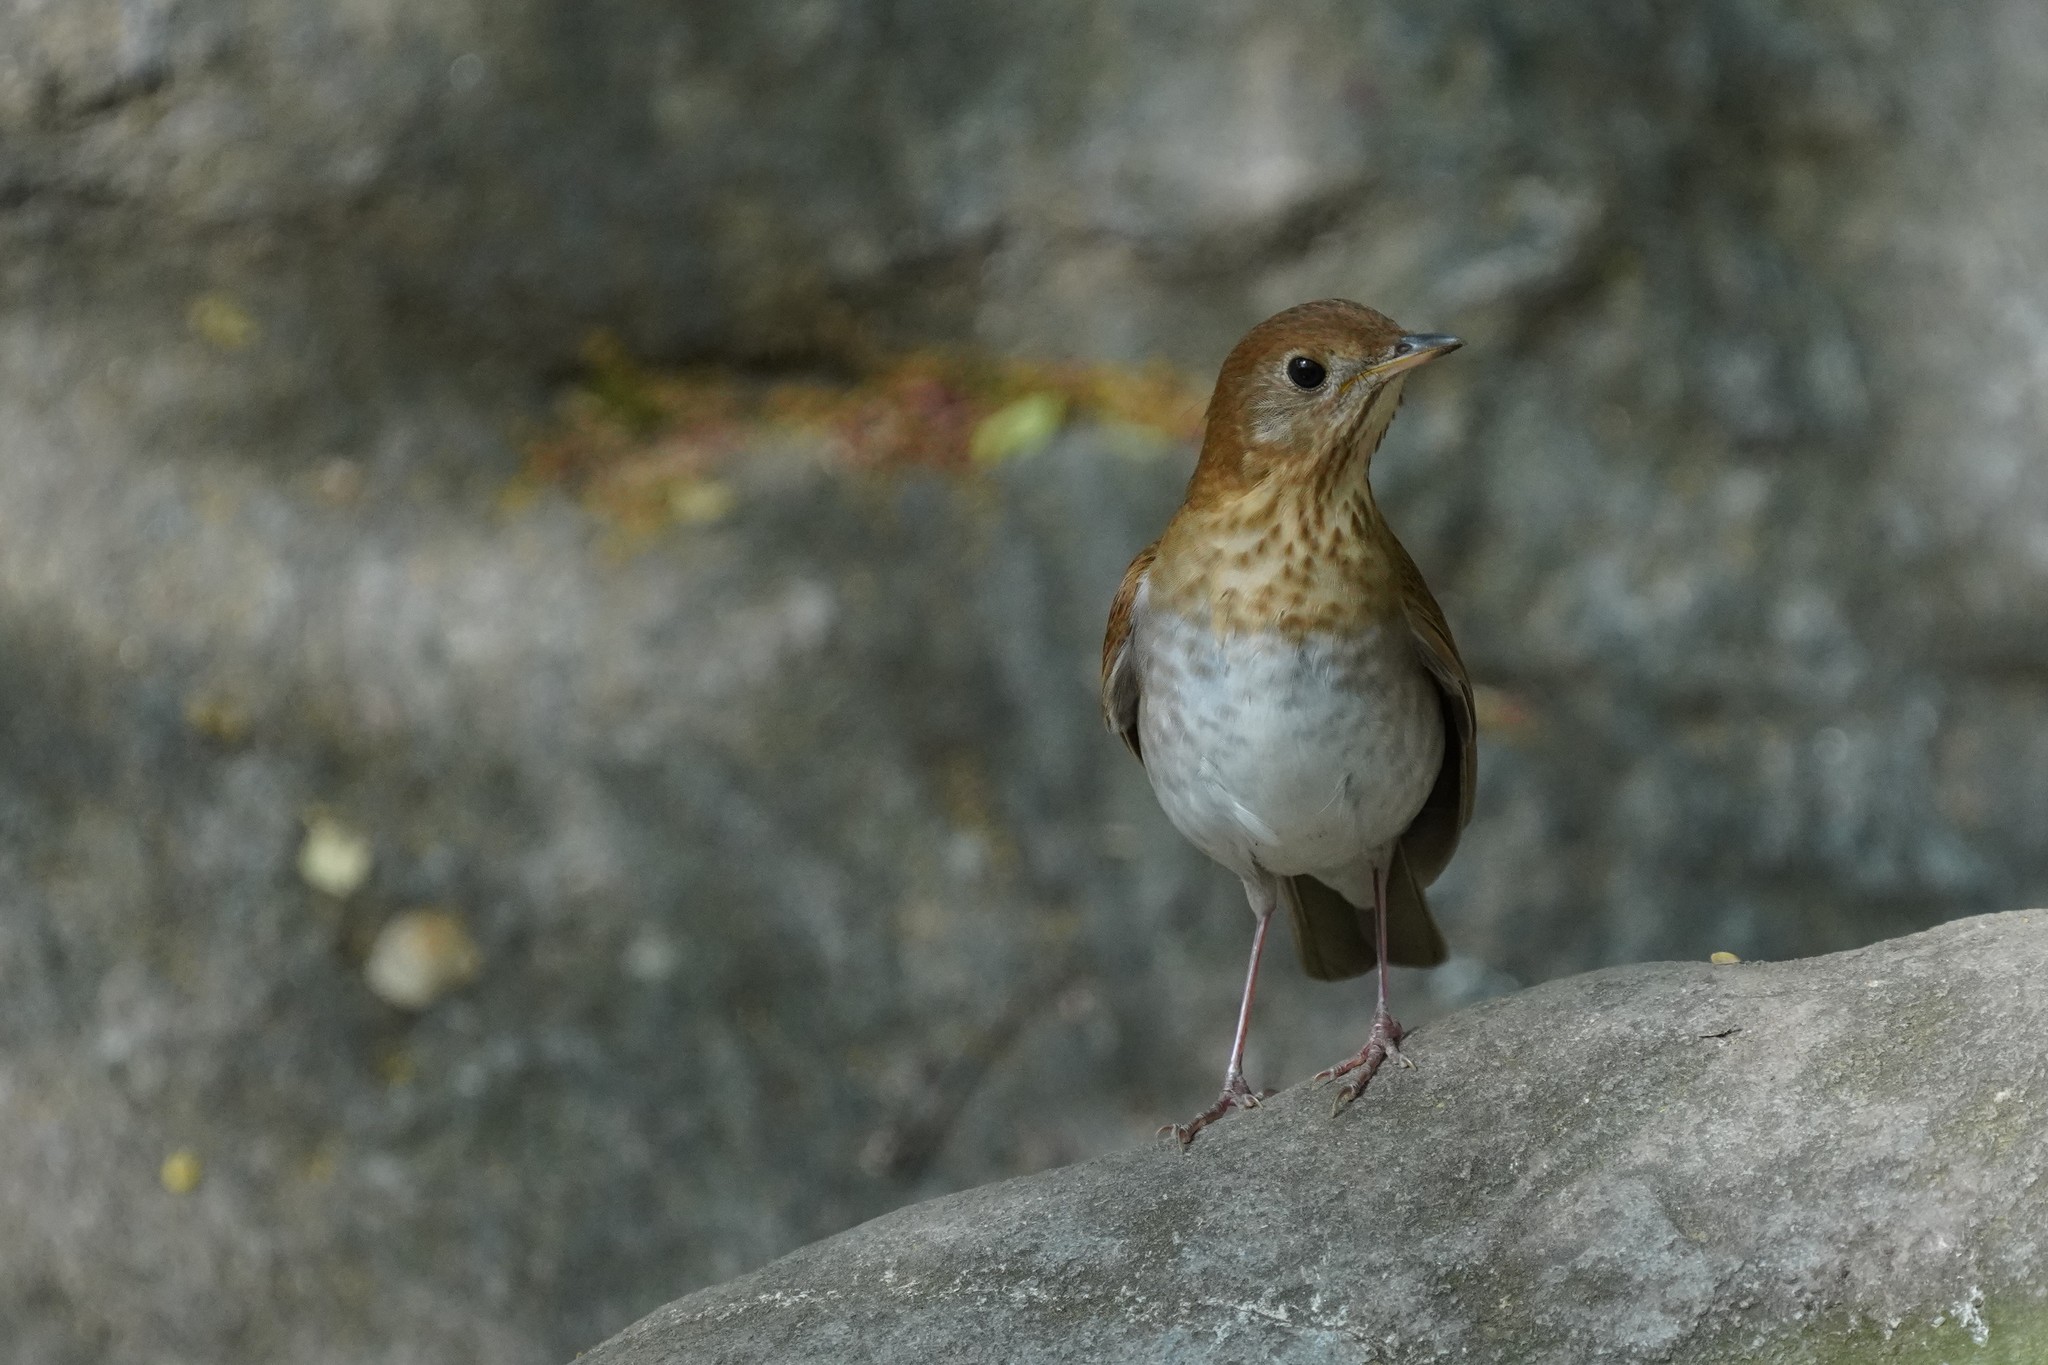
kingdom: Animalia
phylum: Chordata
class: Aves
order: Passeriformes
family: Turdidae
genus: Catharus
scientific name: Catharus fuscescens
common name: Veery
